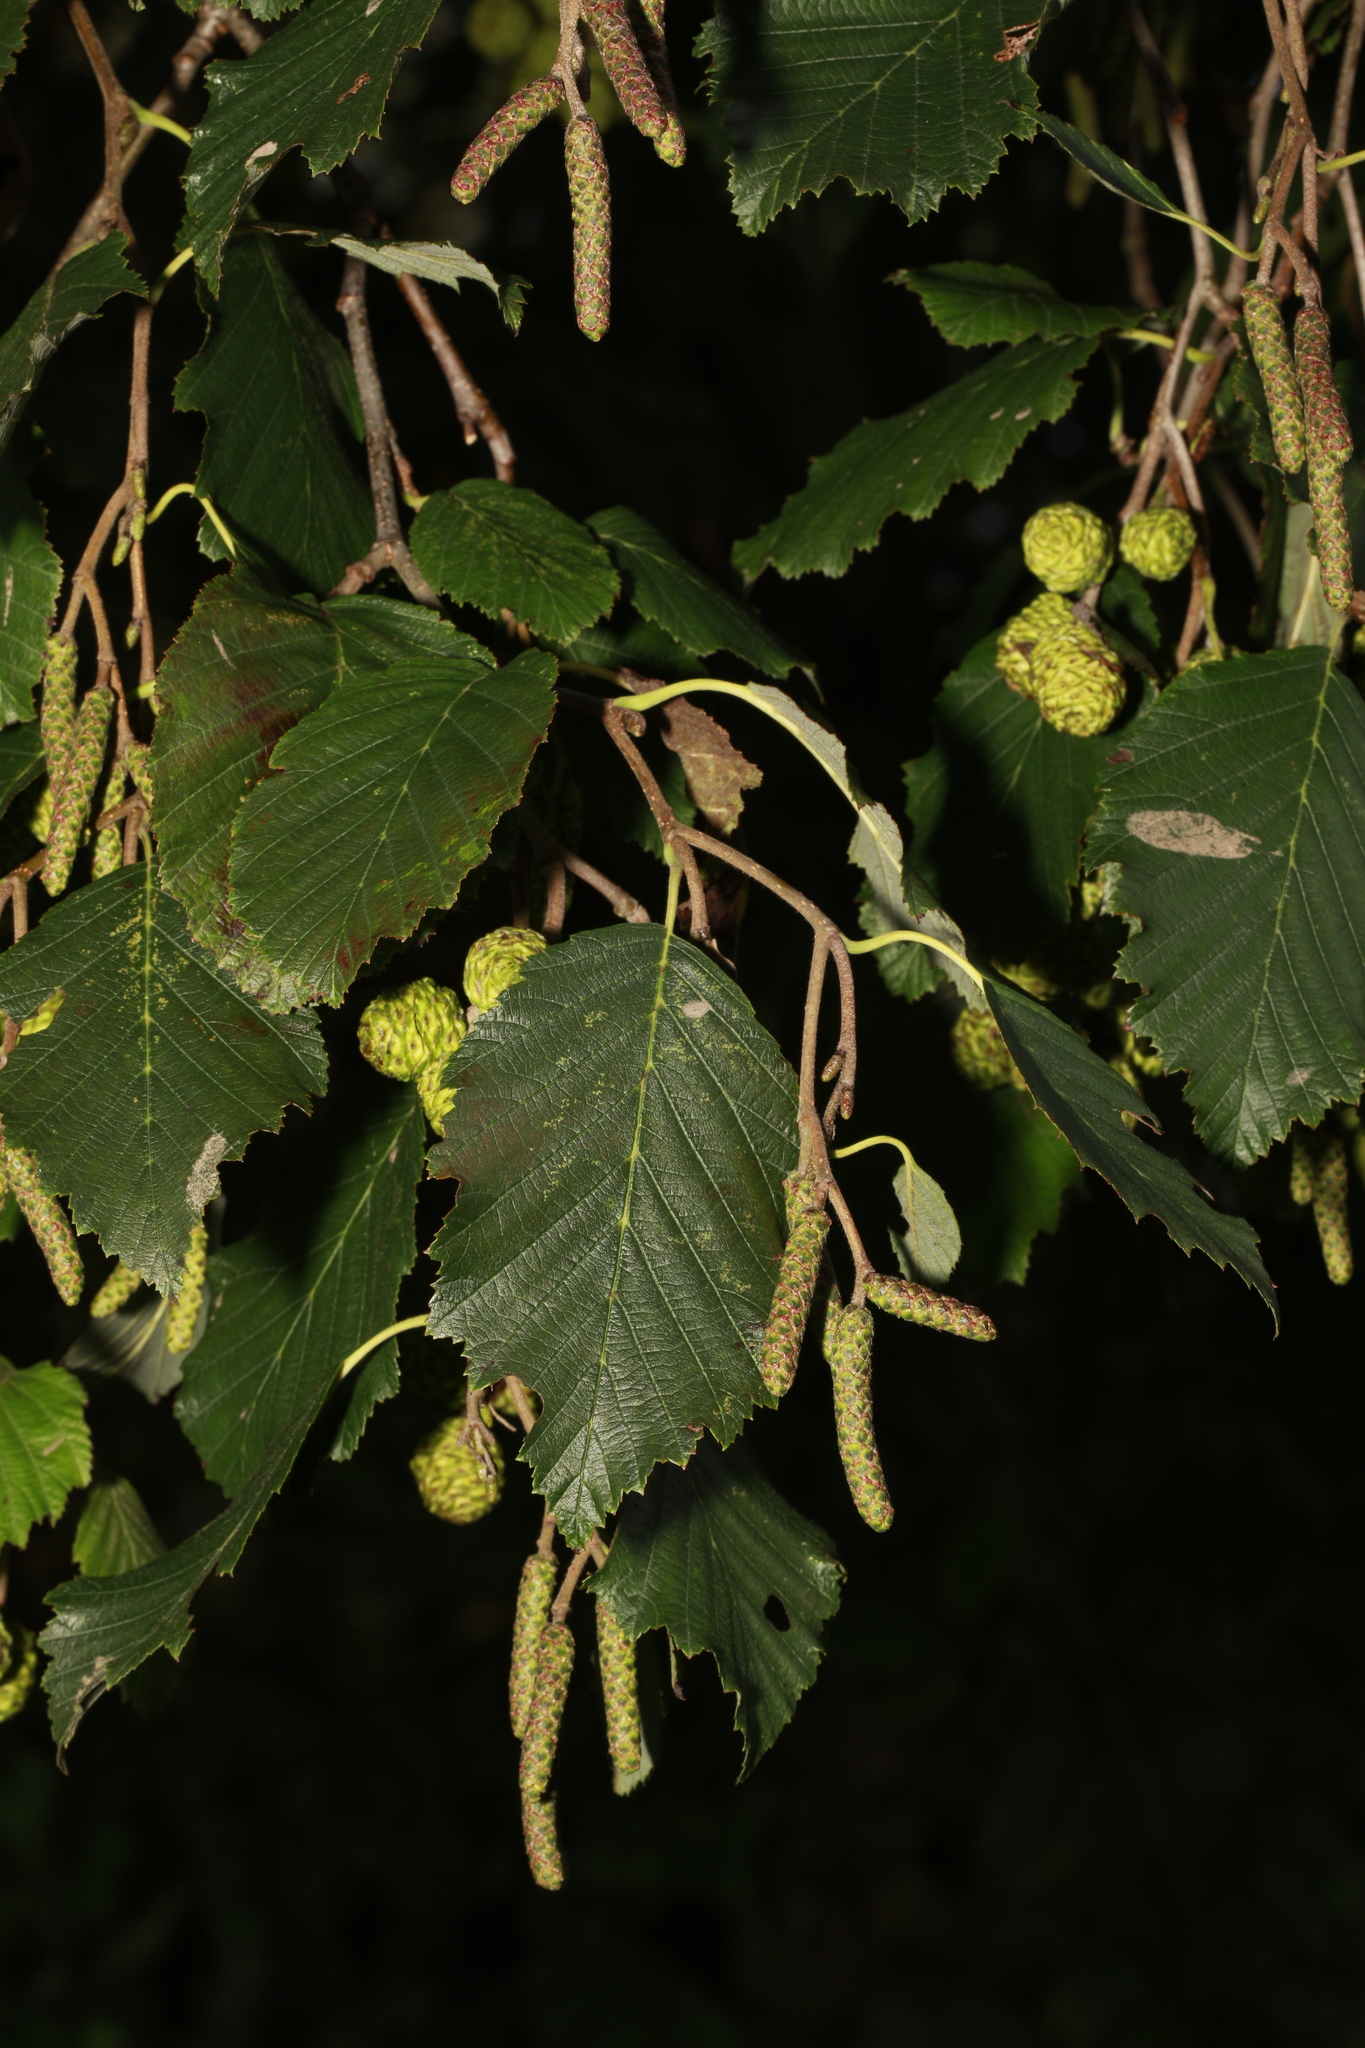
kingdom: Plantae
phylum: Tracheophyta
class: Magnoliopsida
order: Fagales
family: Betulaceae
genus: Alnus
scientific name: Alnus incana
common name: Grey alder
